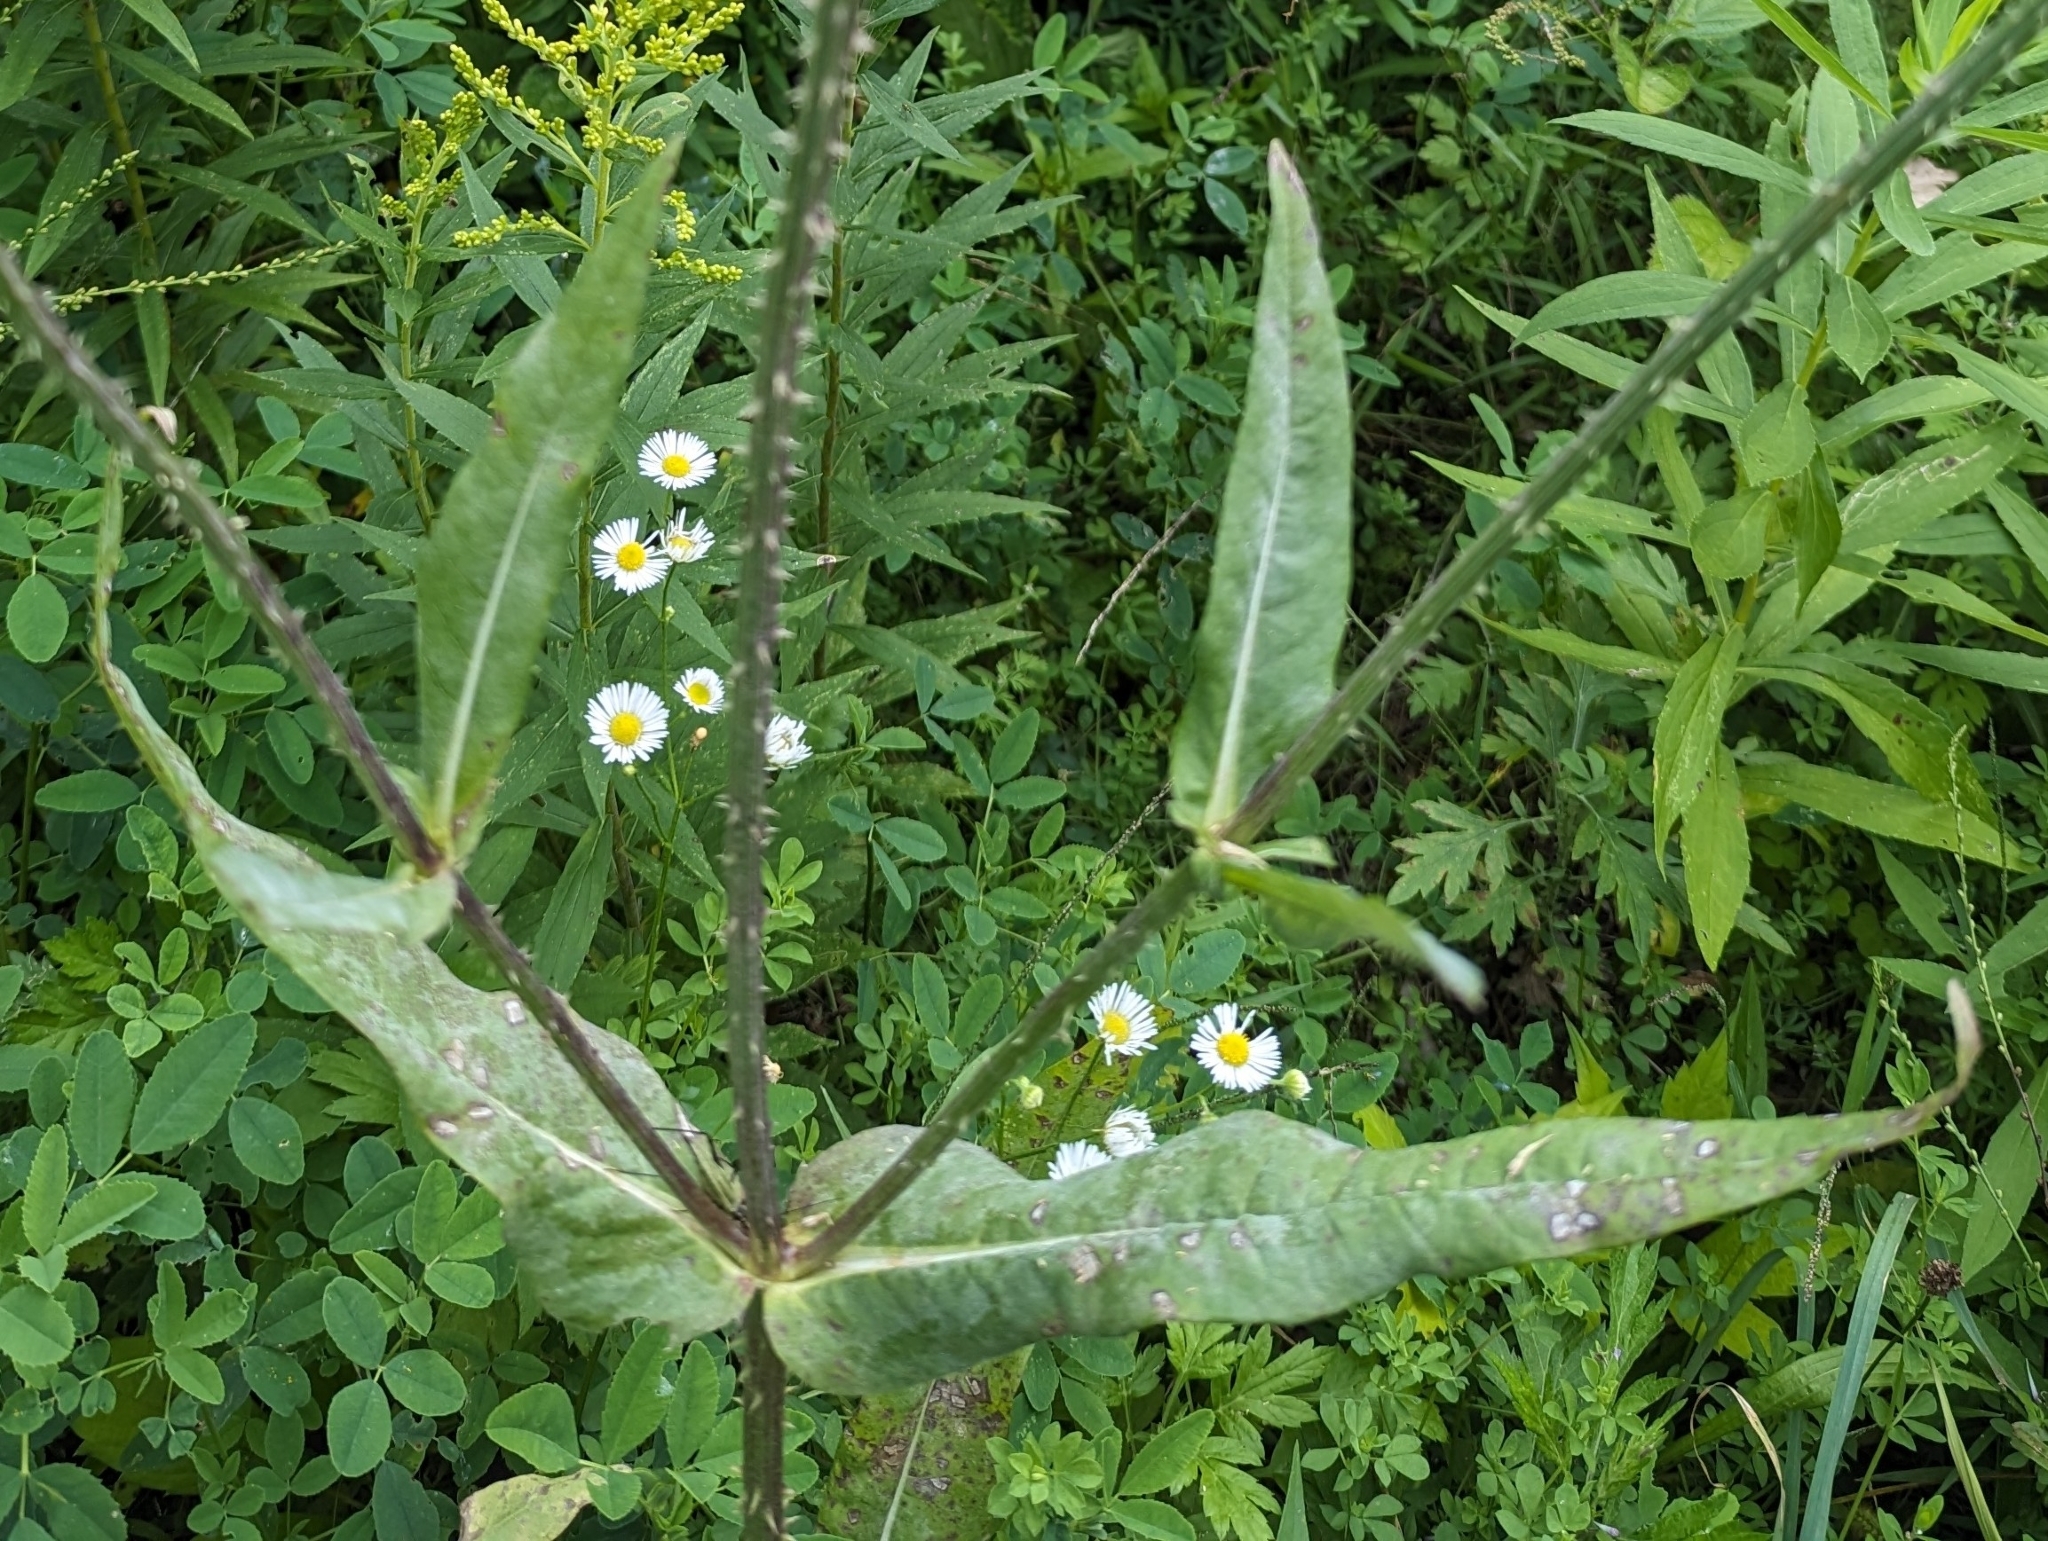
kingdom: Plantae
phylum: Tracheophyta
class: Magnoliopsida
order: Dipsacales
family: Caprifoliaceae
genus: Dipsacus
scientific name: Dipsacus fullonum
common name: Teasel
